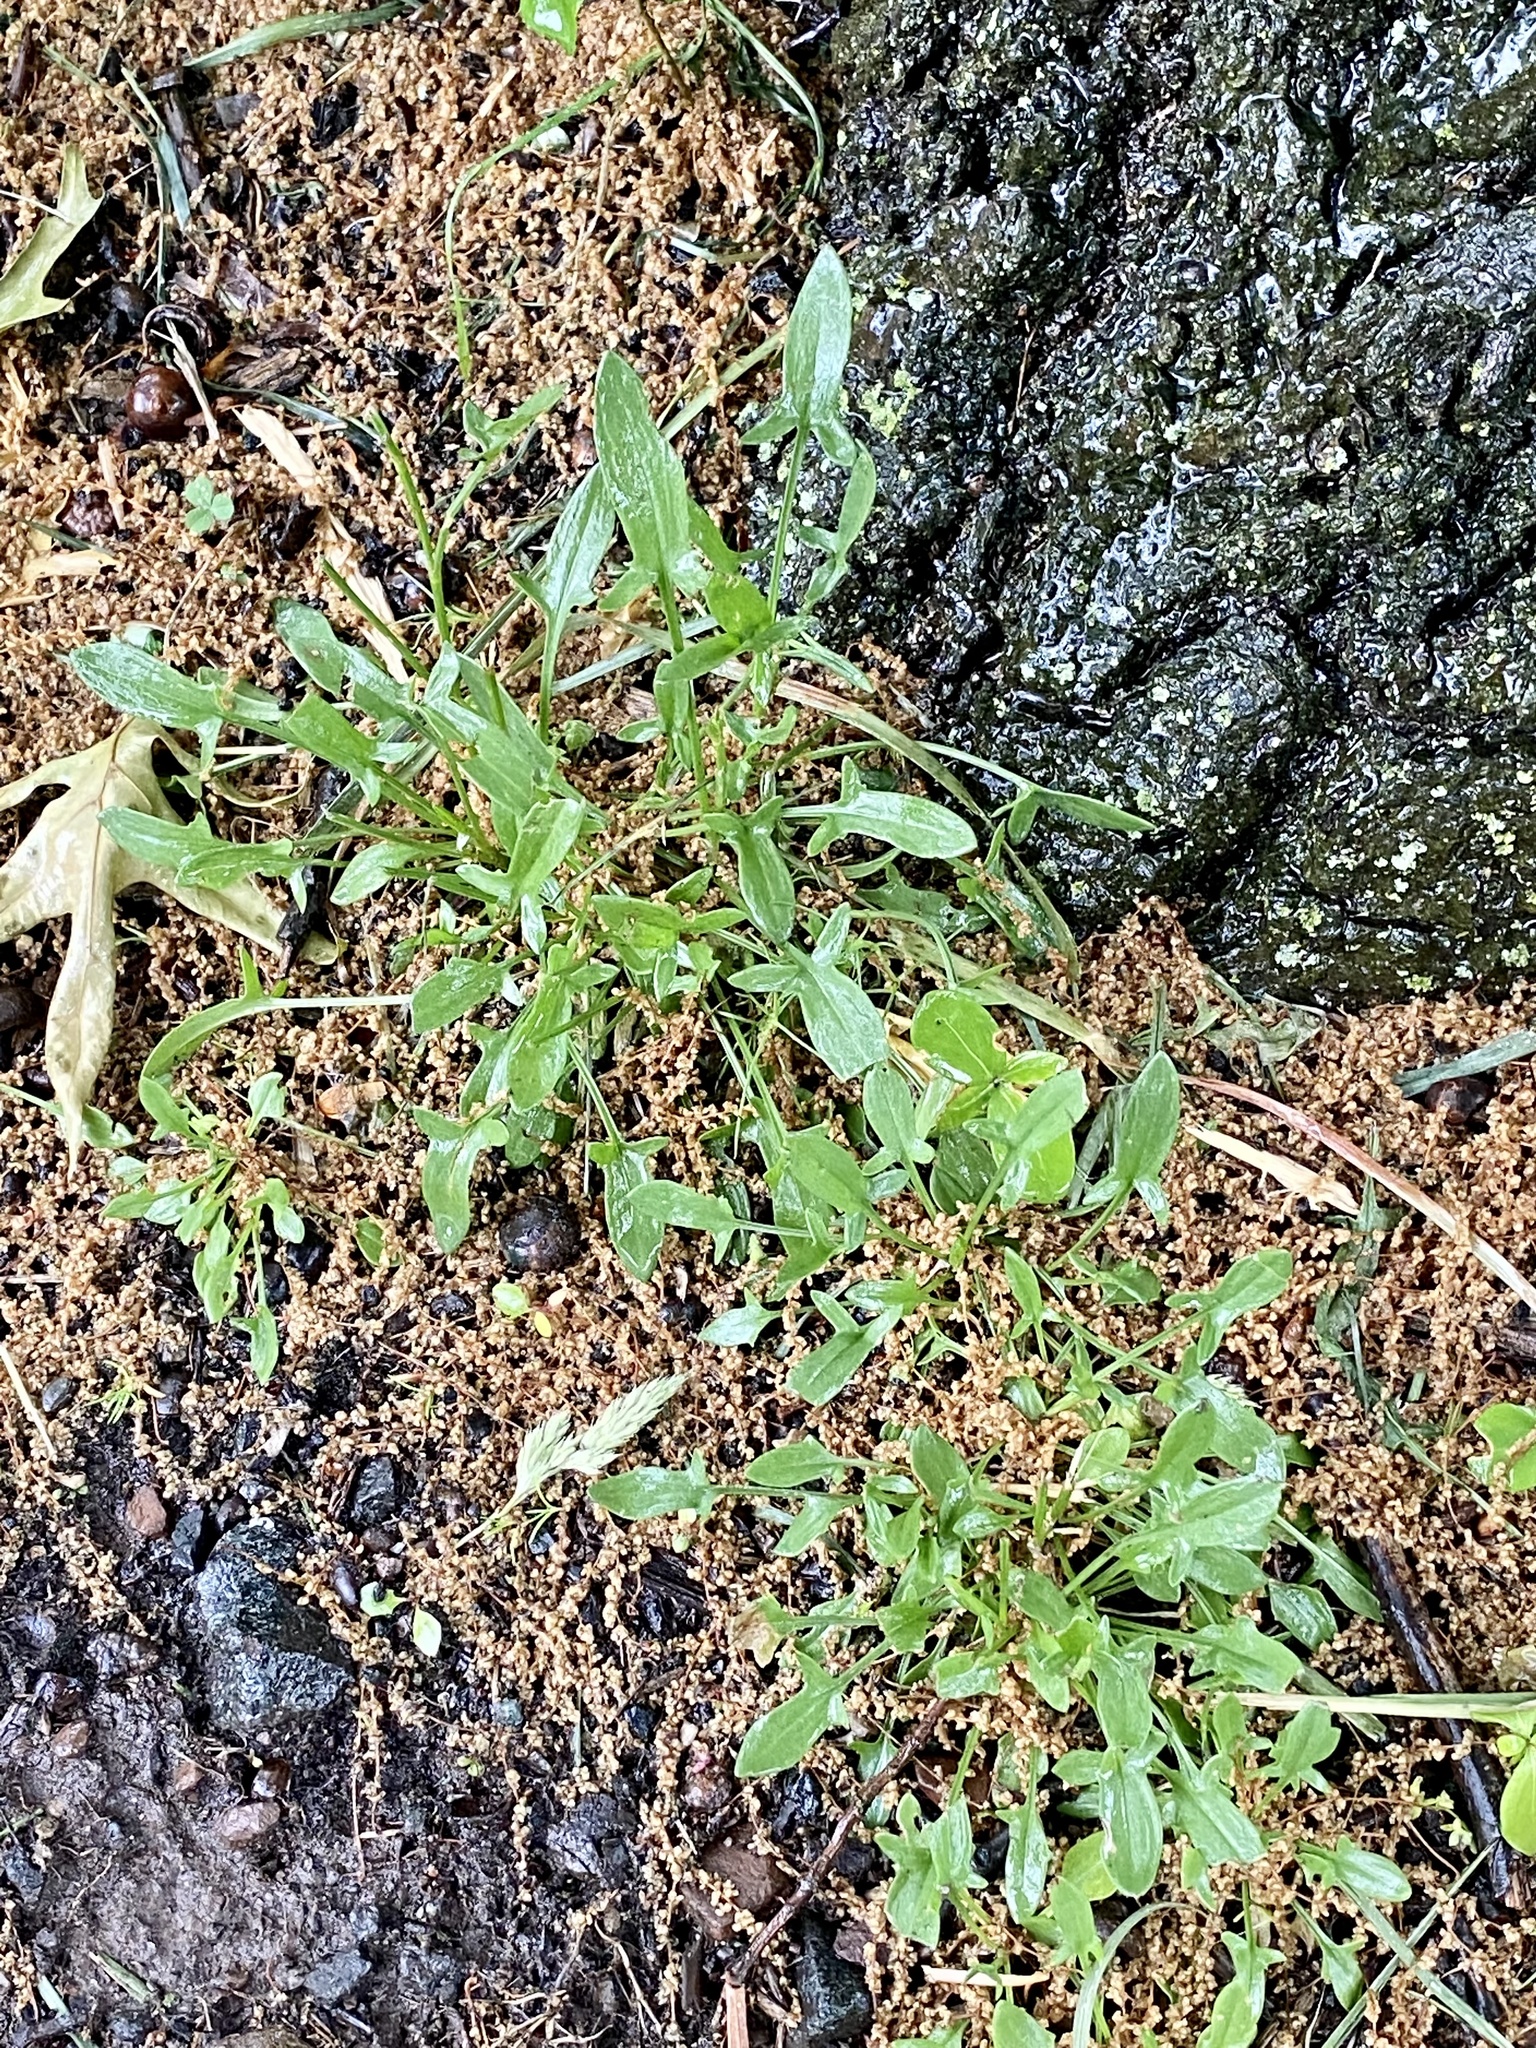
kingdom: Plantae
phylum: Tracheophyta
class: Magnoliopsida
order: Caryophyllales
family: Polygonaceae
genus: Rumex
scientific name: Rumex acetosella
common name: Common sheep sorrel
